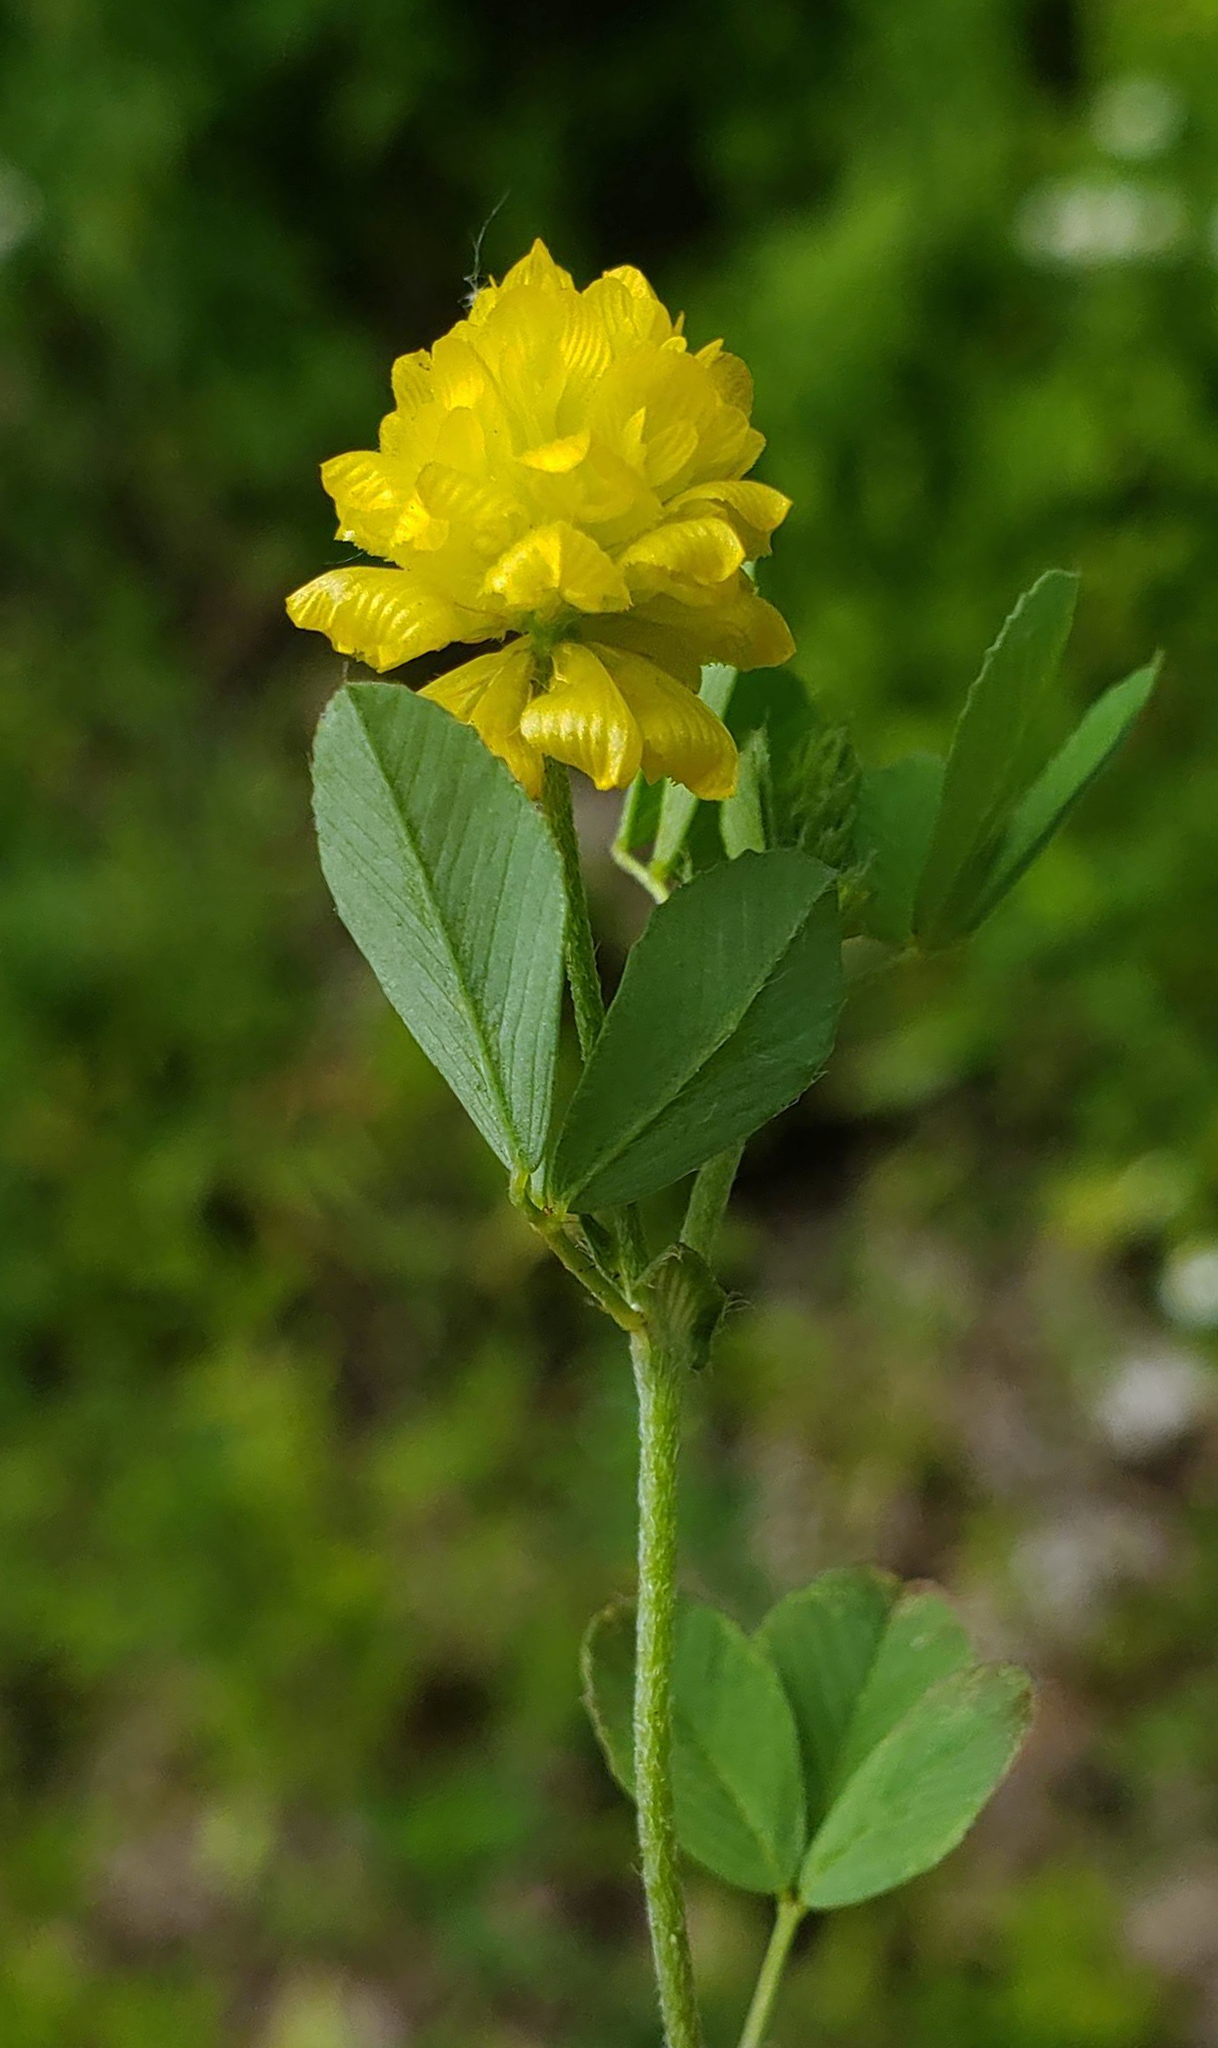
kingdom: Plantae
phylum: Tracheophyta
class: Magnoliopsida
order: Fabales
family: Fabaceae
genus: Trifolium
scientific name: Trifolium campestre
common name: Field clover
